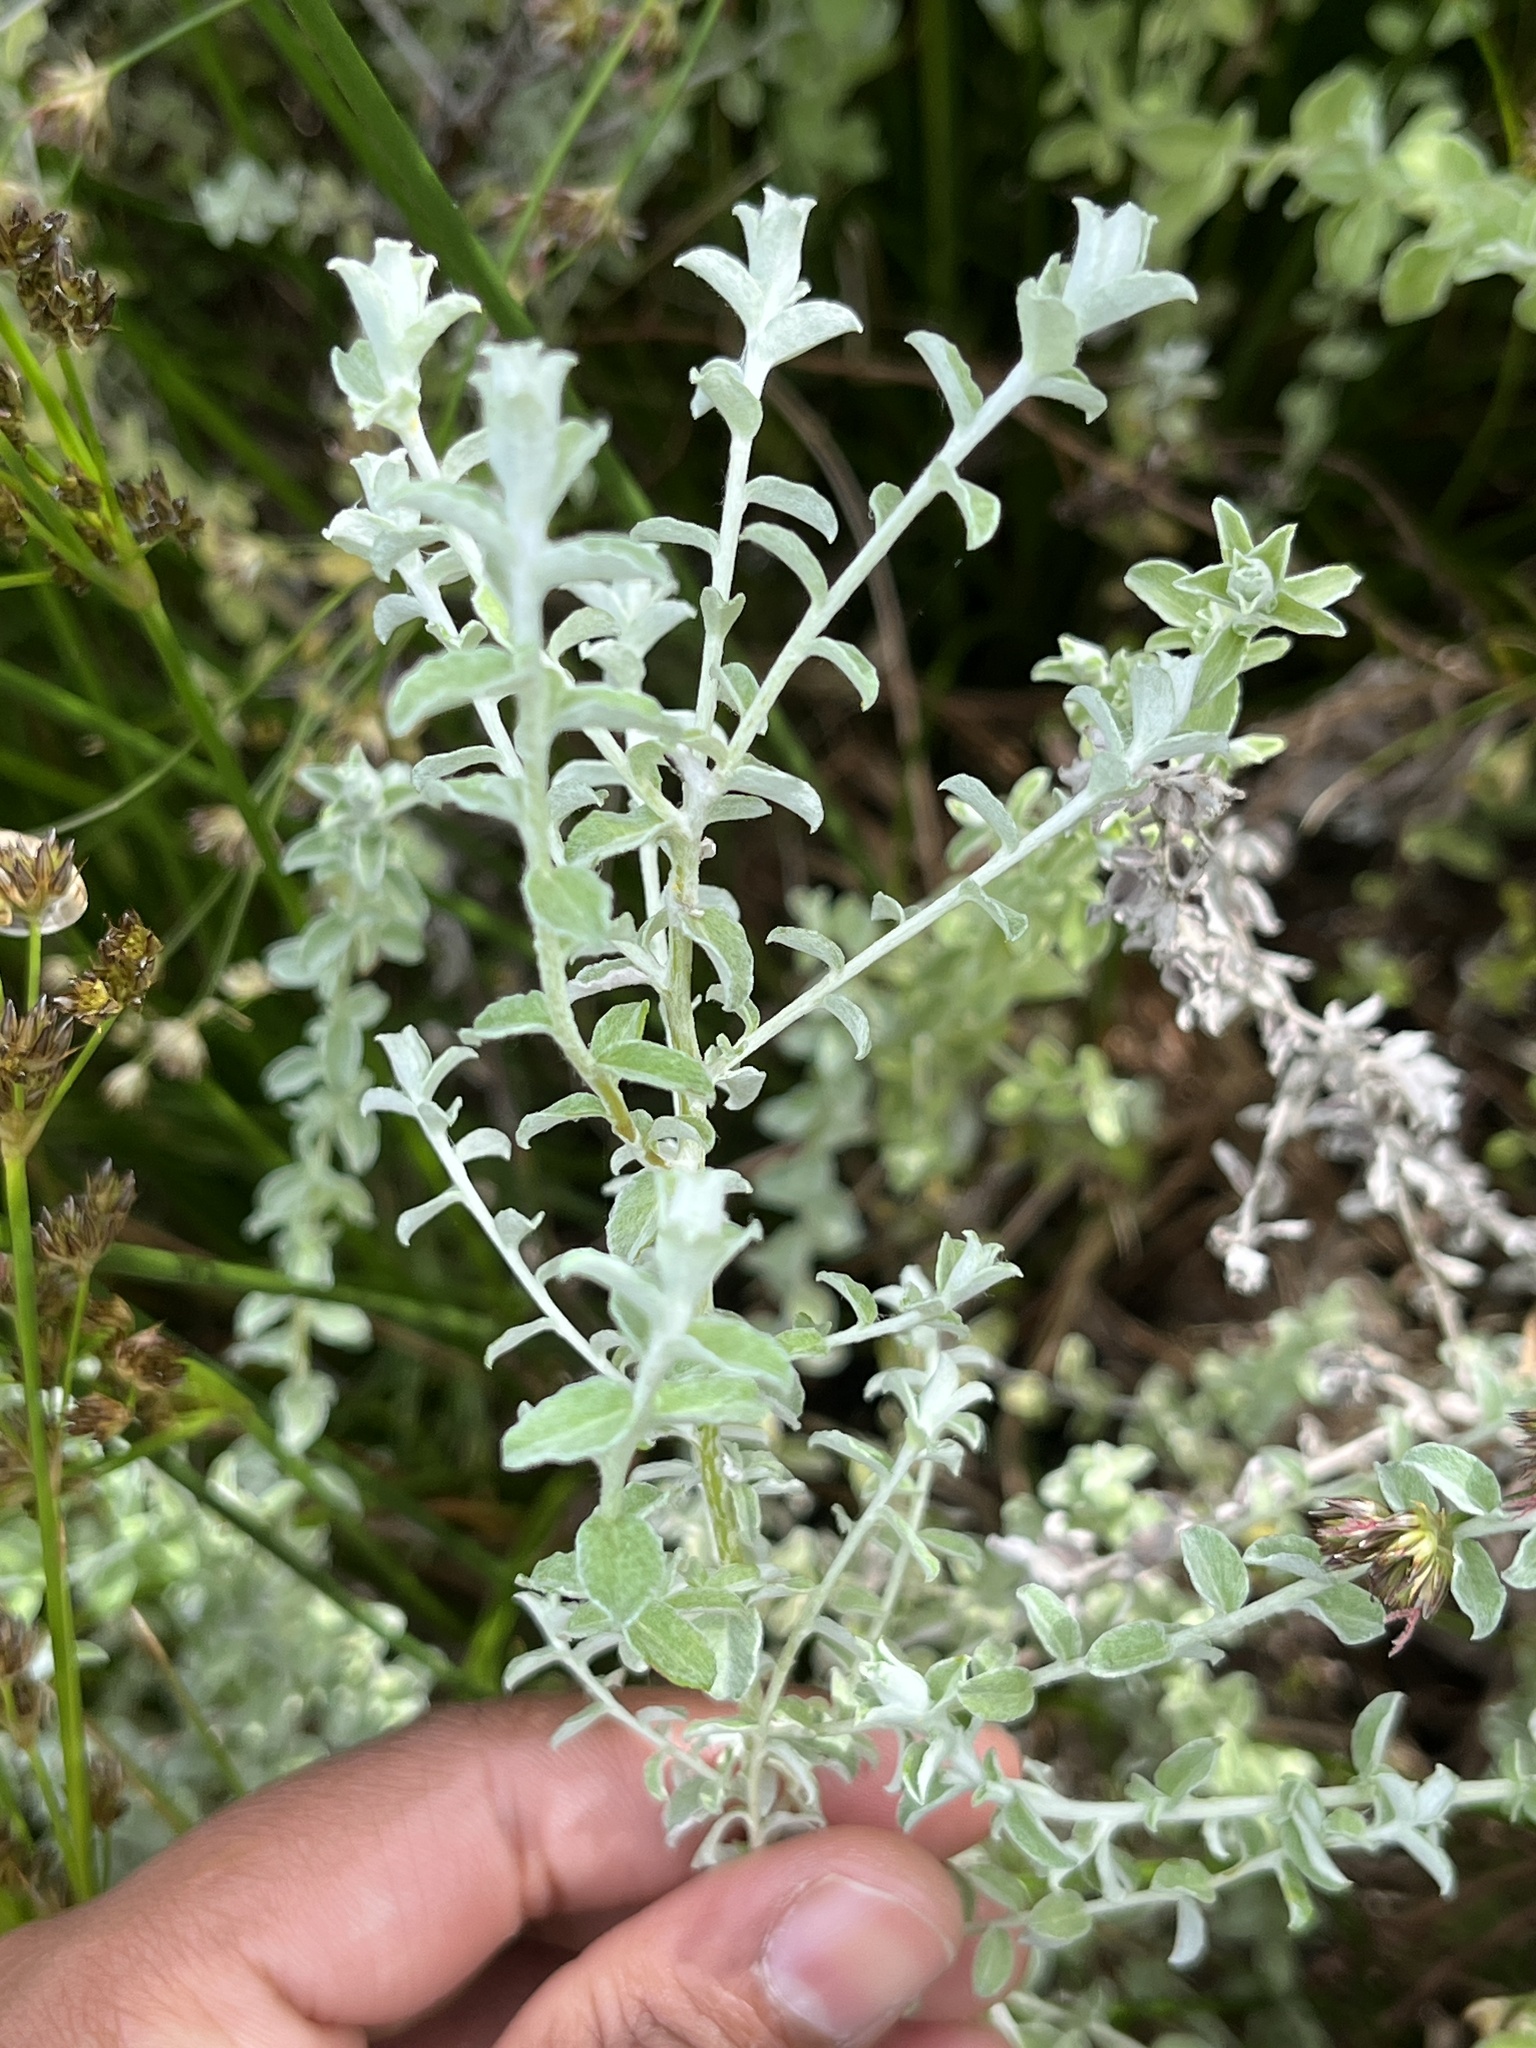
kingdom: Plantae
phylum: Tracheophyta
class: Magnoliopsida
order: Asterales
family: Asteraceae
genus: Plecostachys
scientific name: Plecostachys serpyllifolia
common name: Petite licorice
